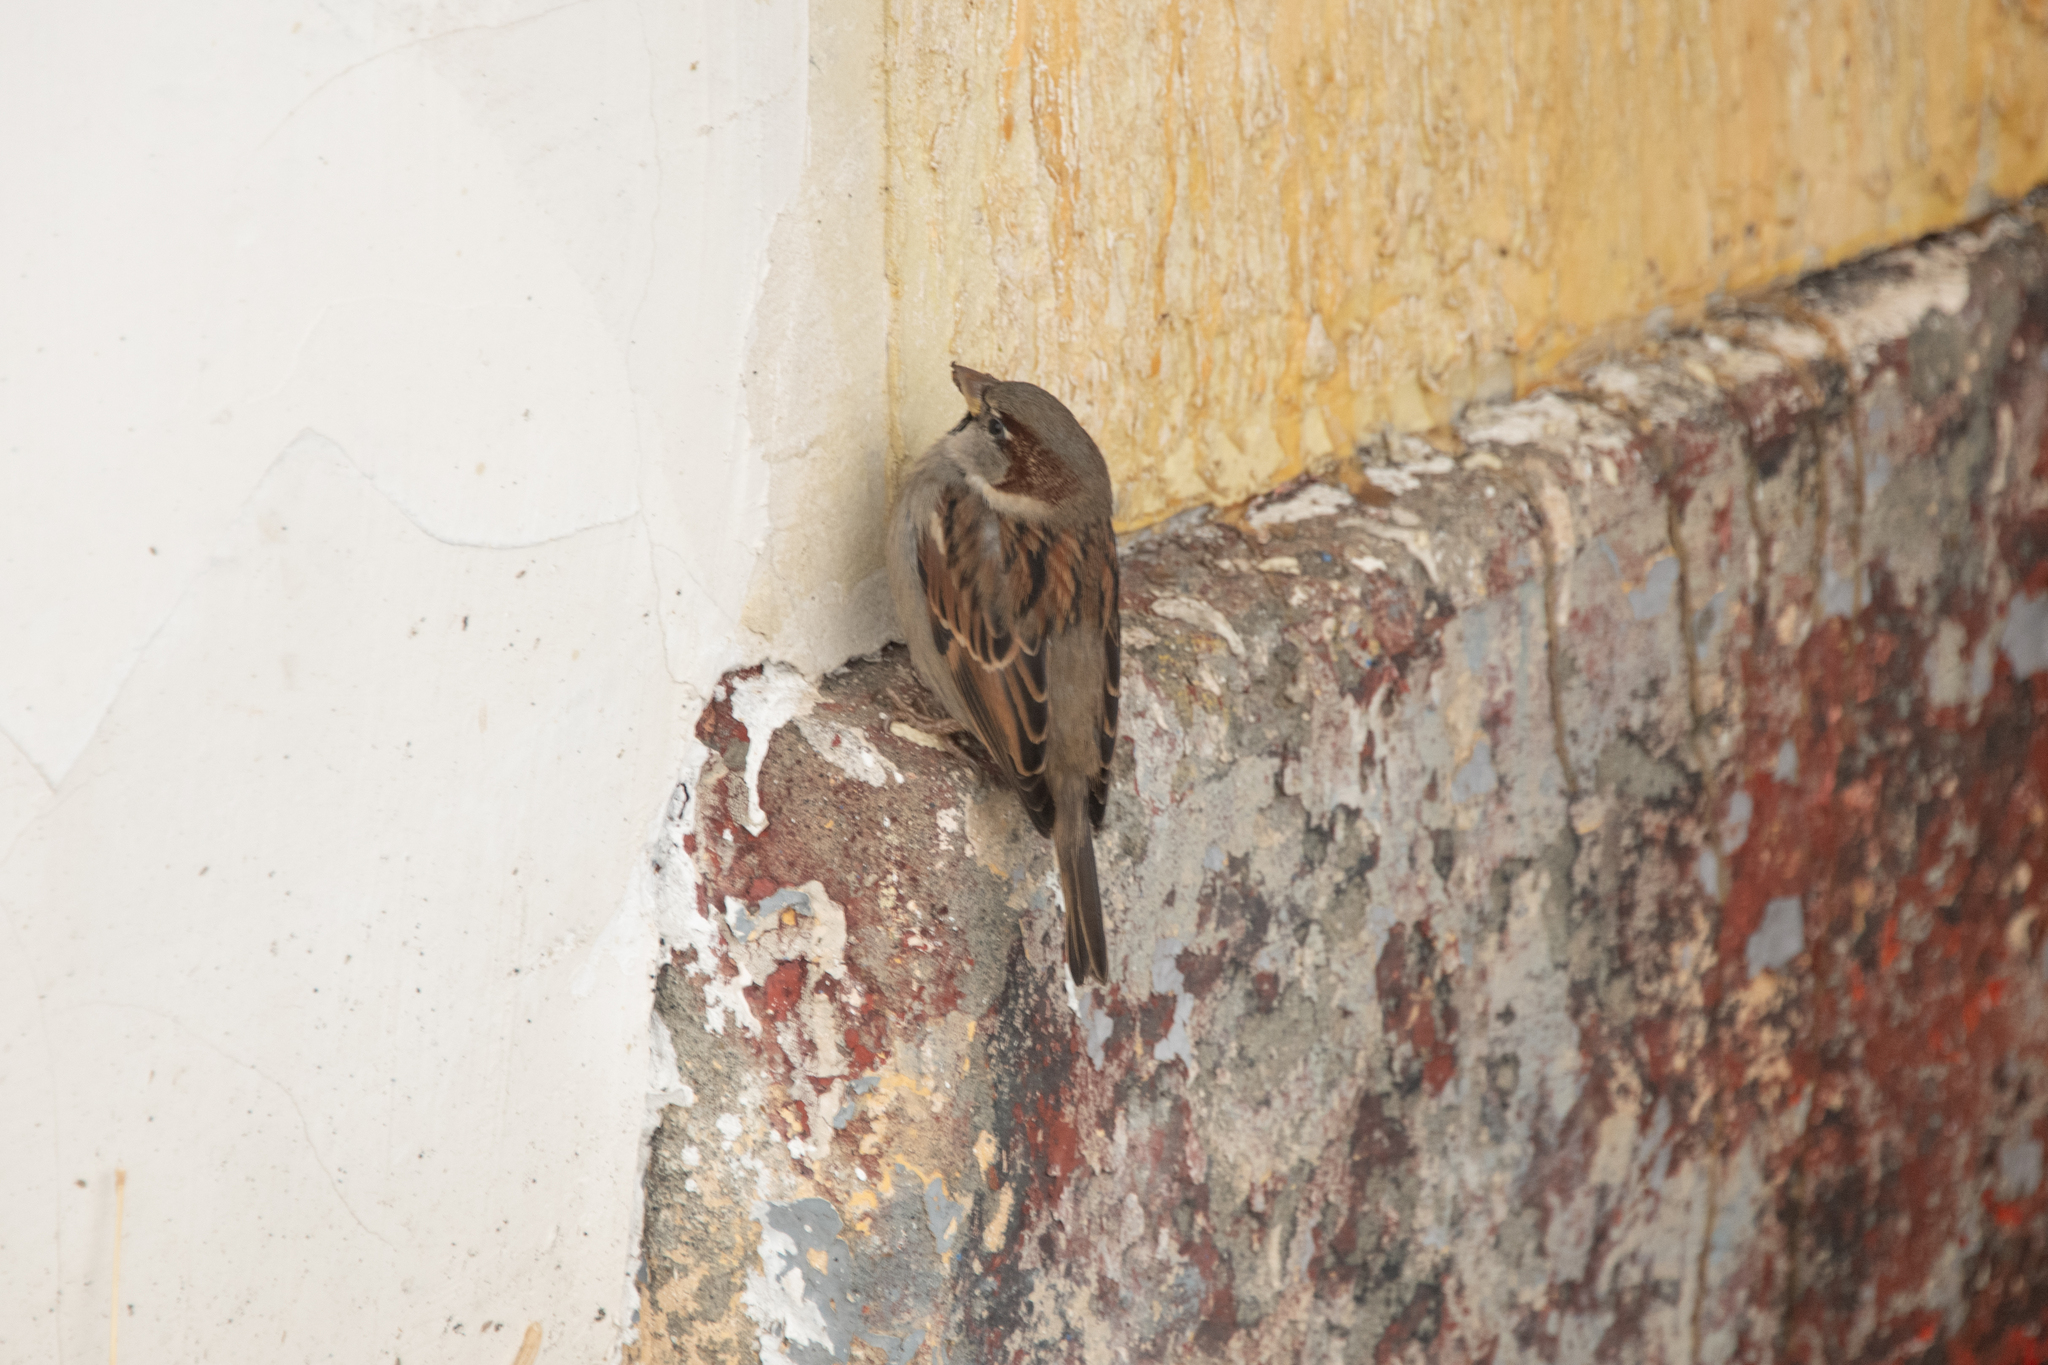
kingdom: Animalia
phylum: Chordata
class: Aves
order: Passeriformes
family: Passeridae
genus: Passer
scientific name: Passer domesticus
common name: House sparrow
